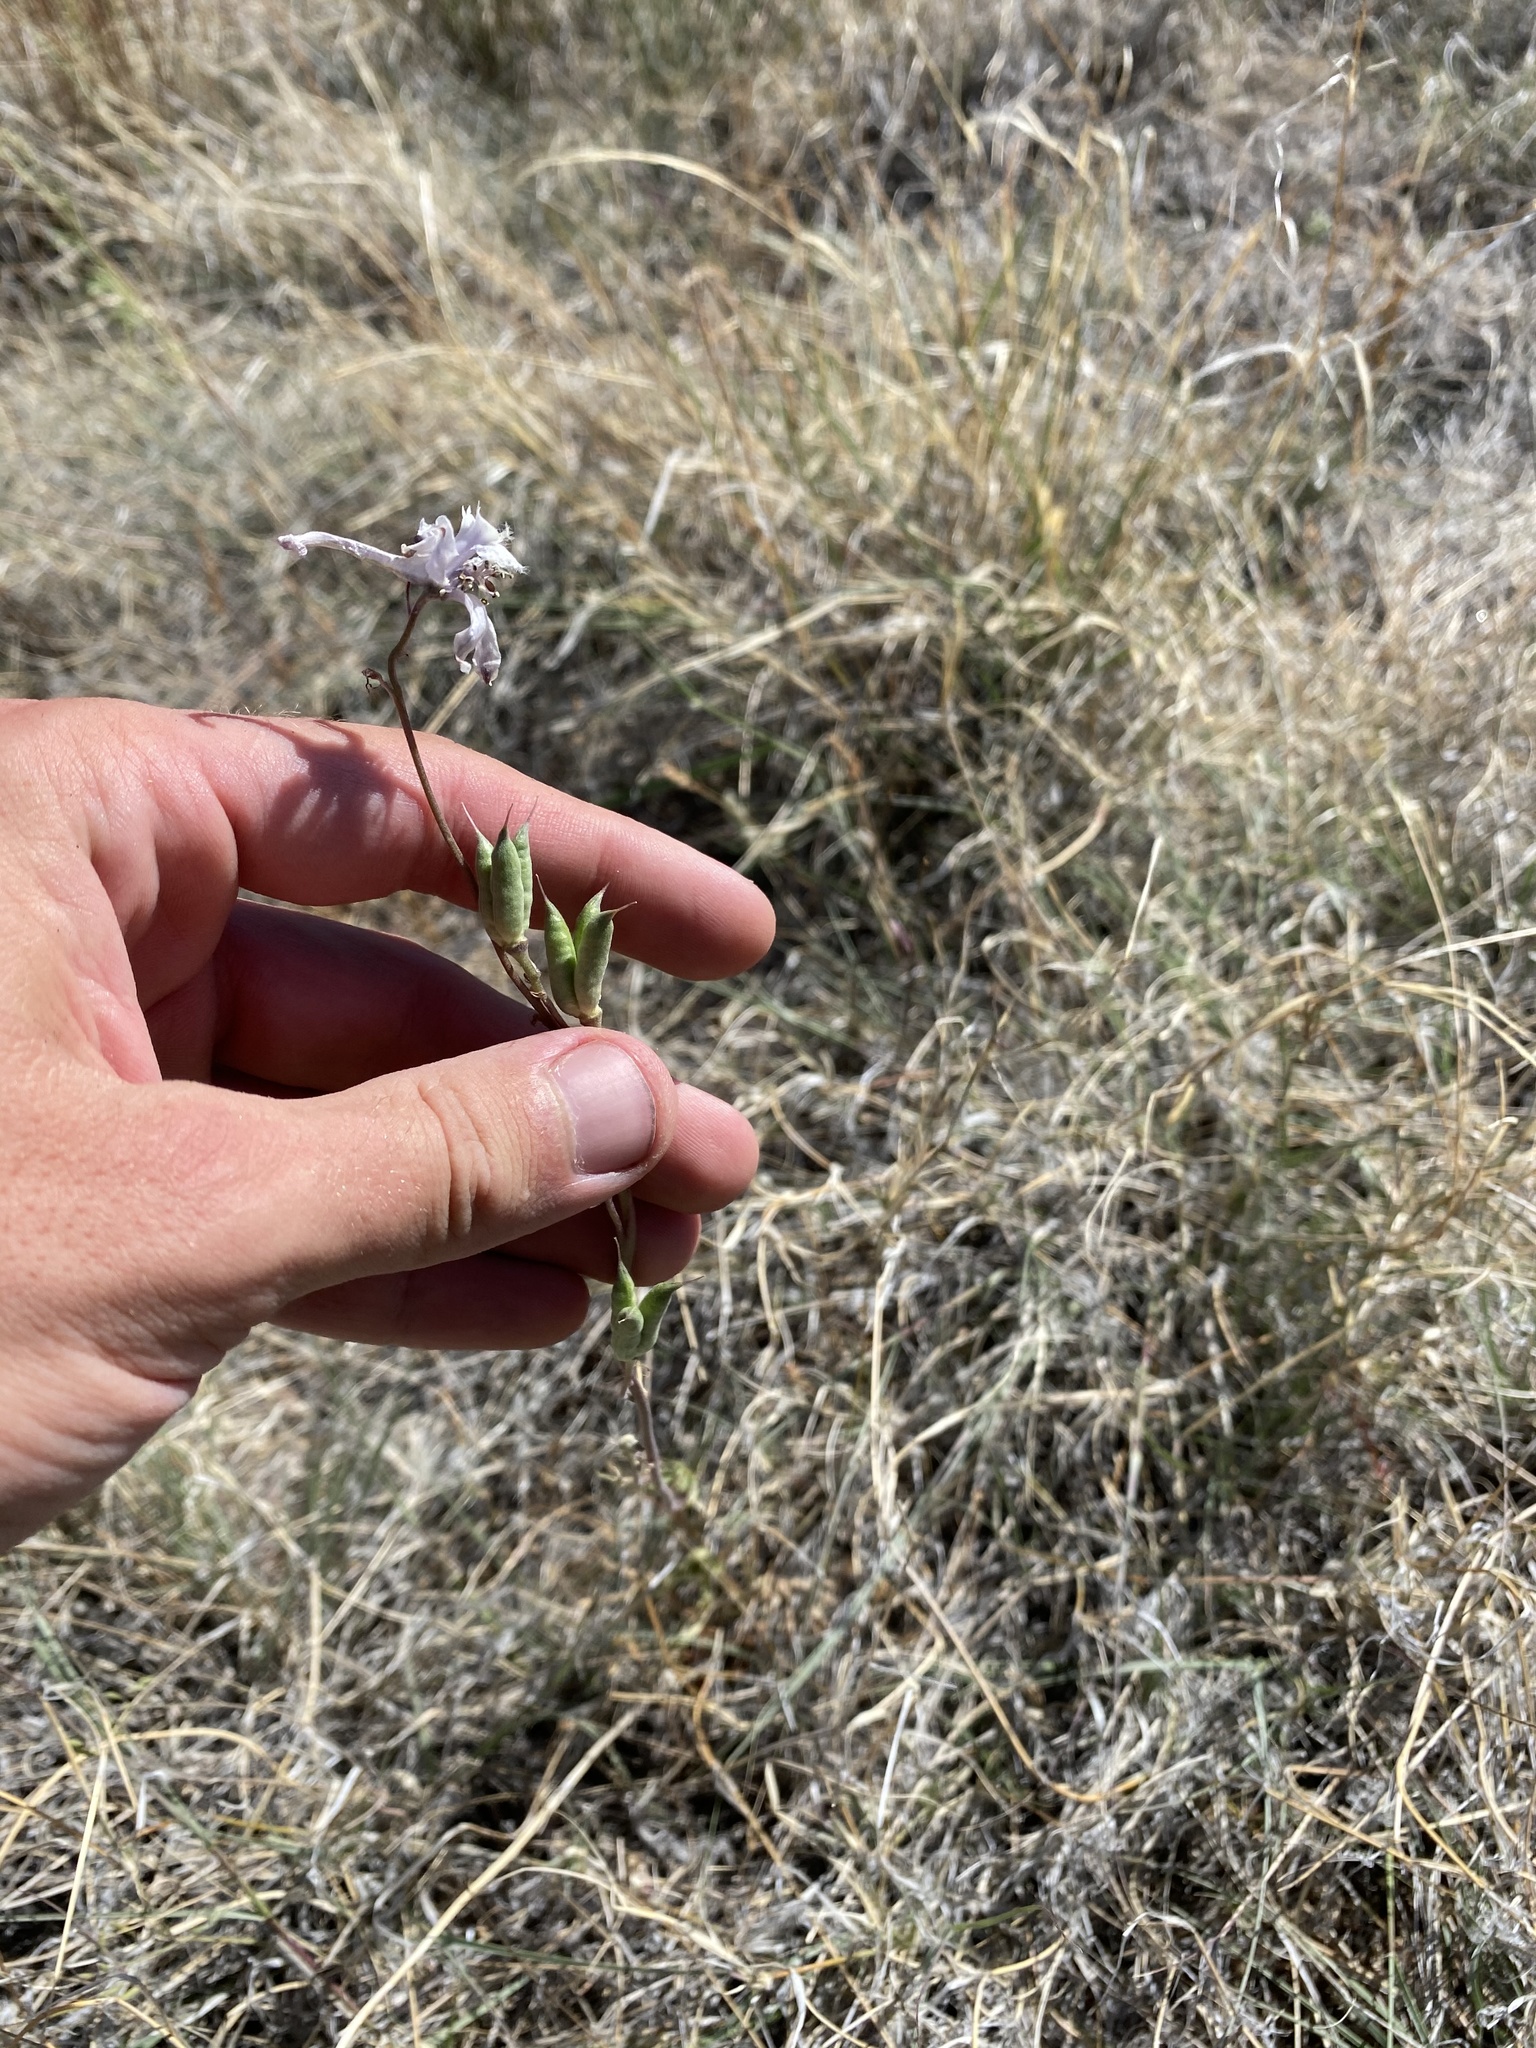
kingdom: Plantae
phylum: Tracheophyta
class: Magnoliopsida
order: Ranunculales
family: Ranunculaceae
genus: Delphinium
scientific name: Delphinium wootonii
